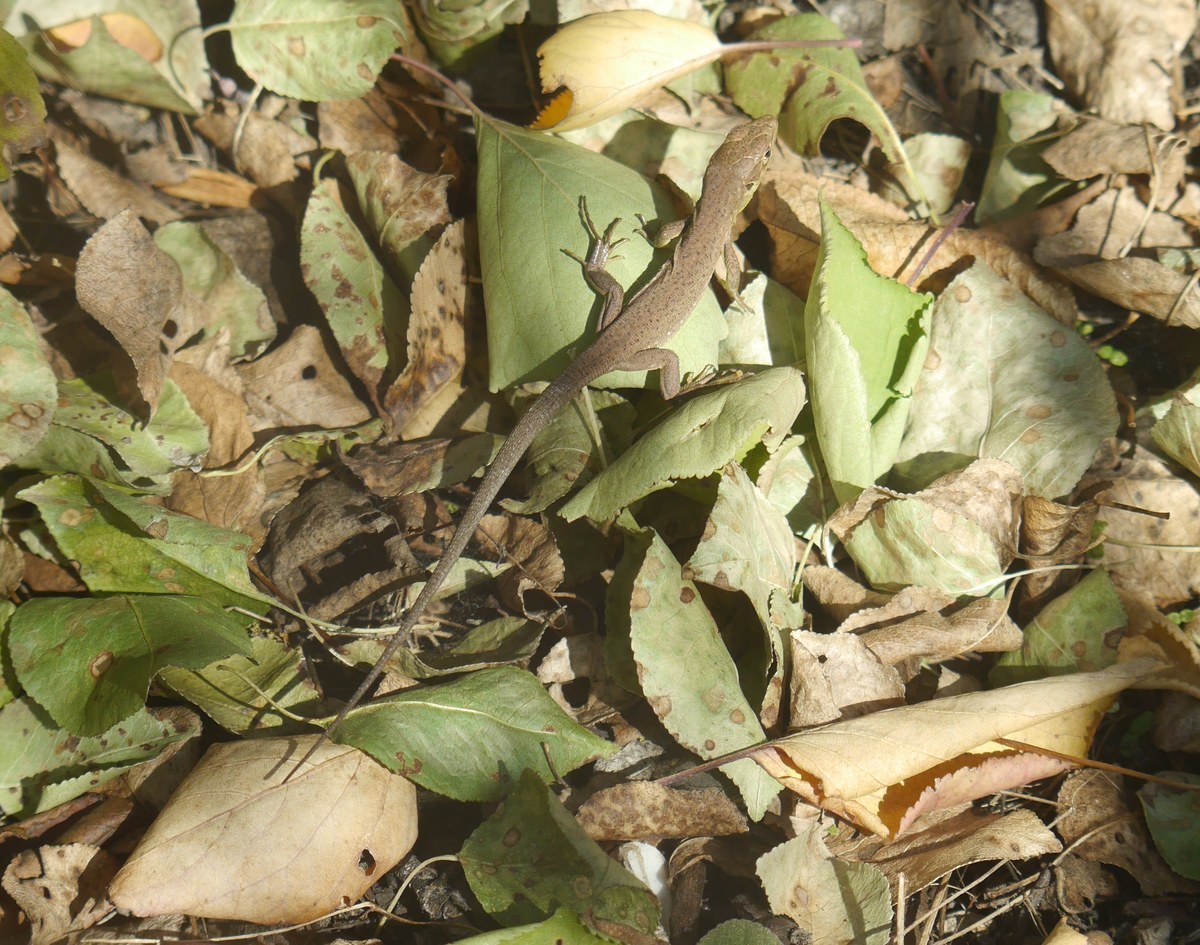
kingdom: Animalia
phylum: Chordata
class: Squamata
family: Lacertidae
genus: Lacerta
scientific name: Lacerta viridis
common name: European green lizard
